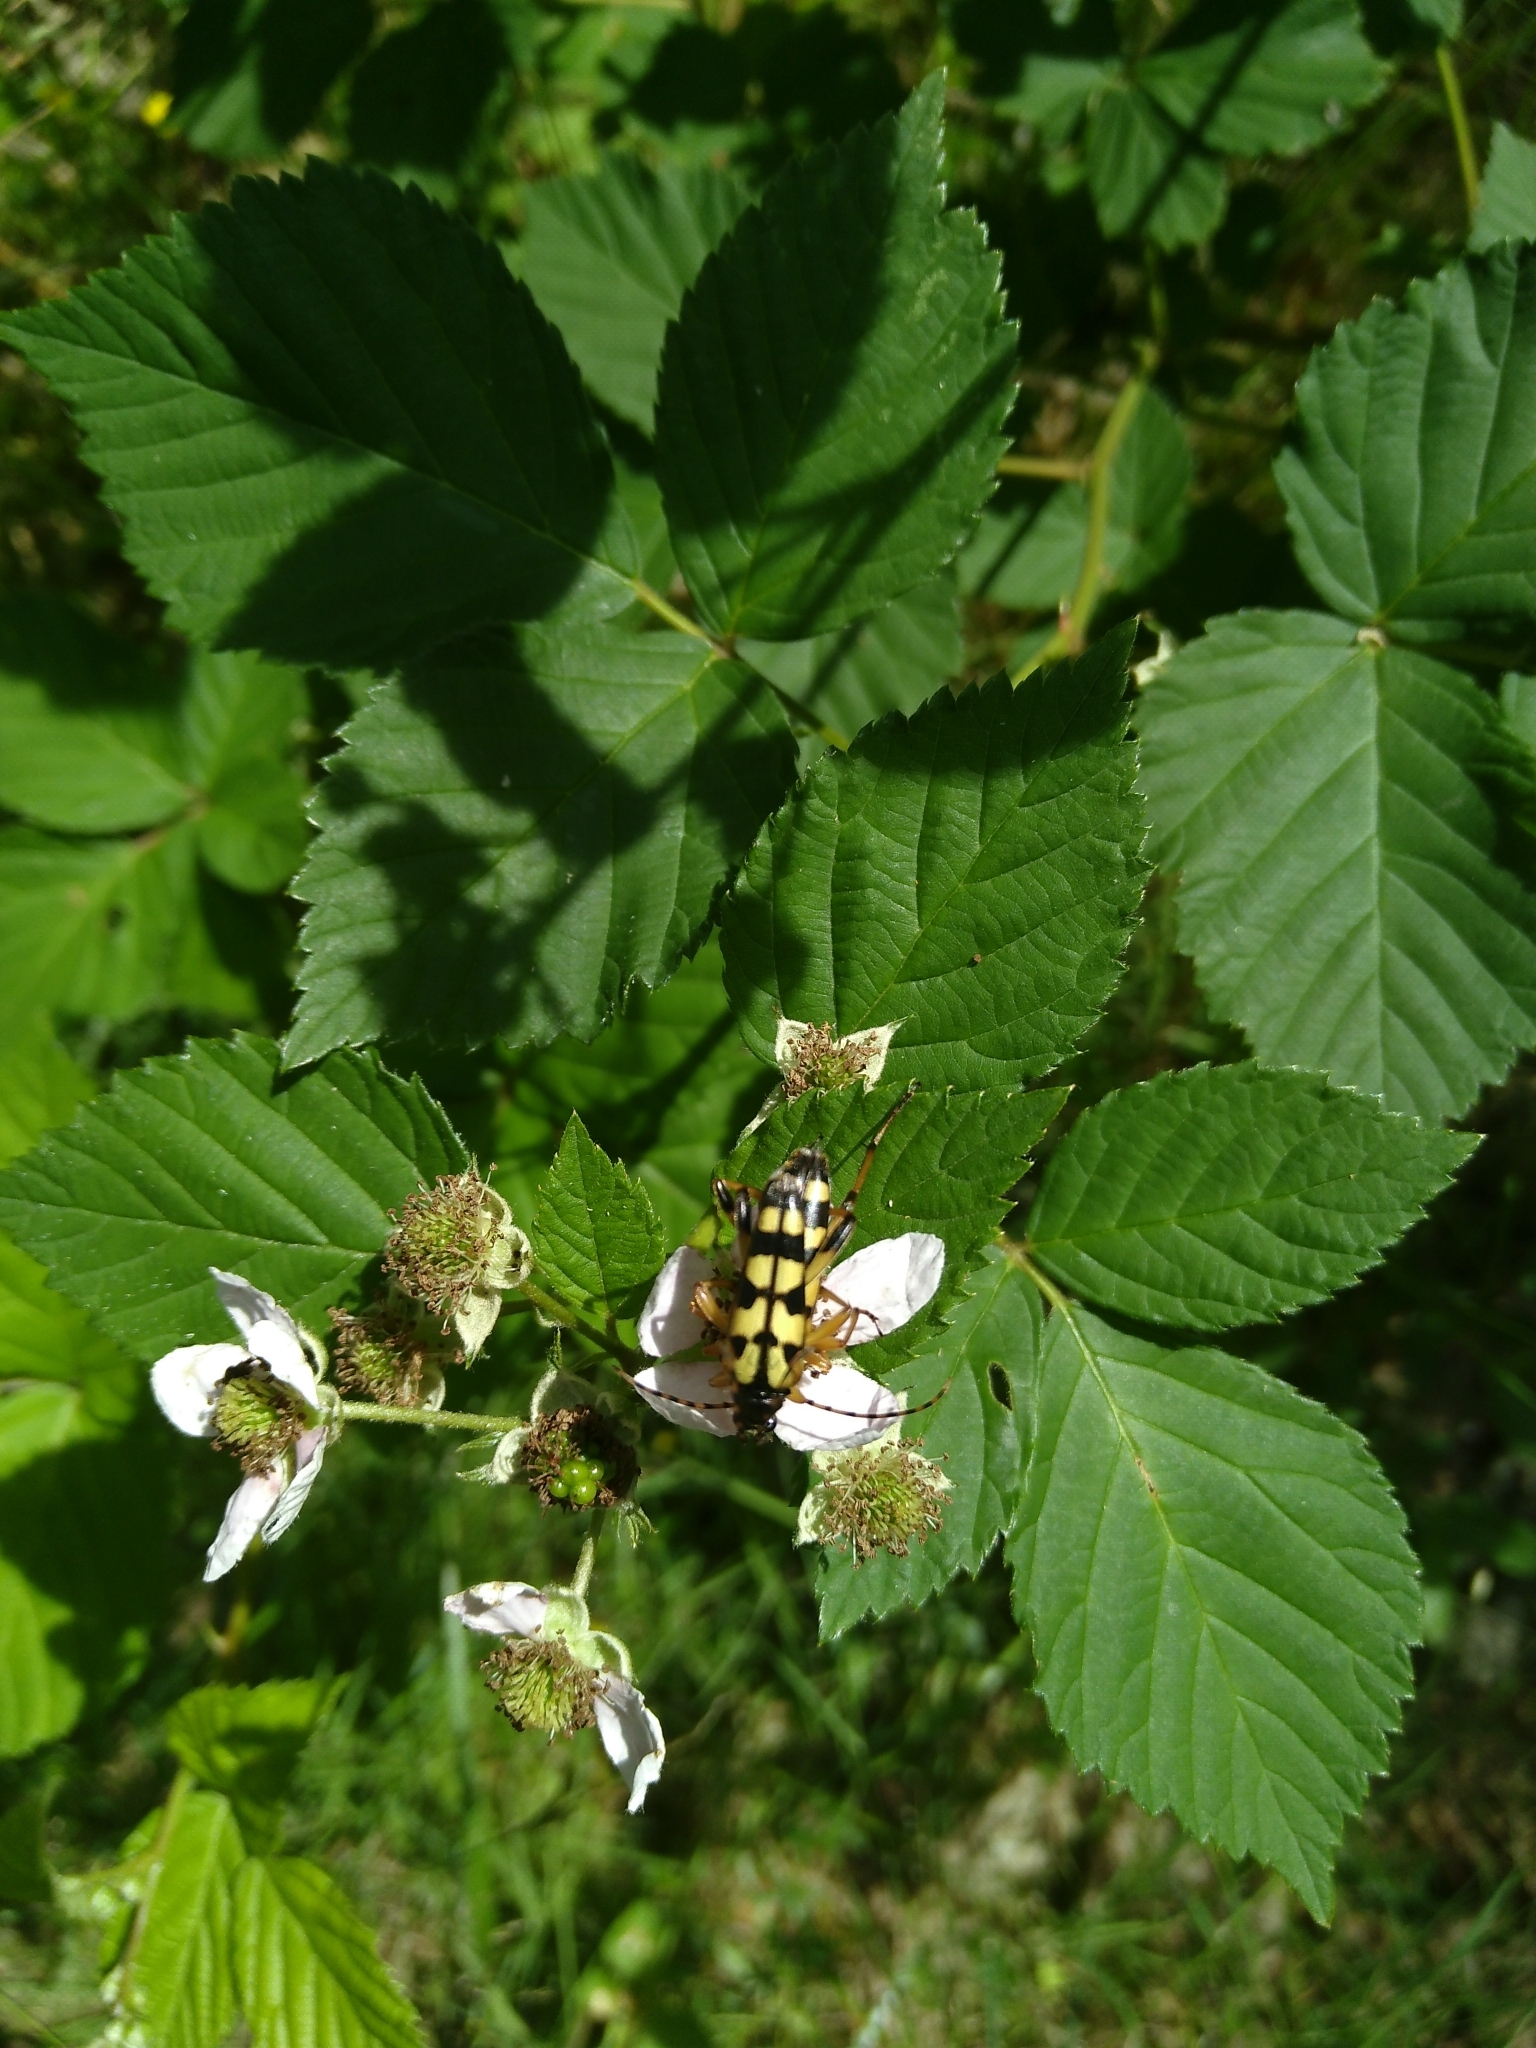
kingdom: Animalia
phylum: Arthropoda
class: Insecta
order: Coleoptera
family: Cerambycidae
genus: Rutpela
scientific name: Rutpela maculata
